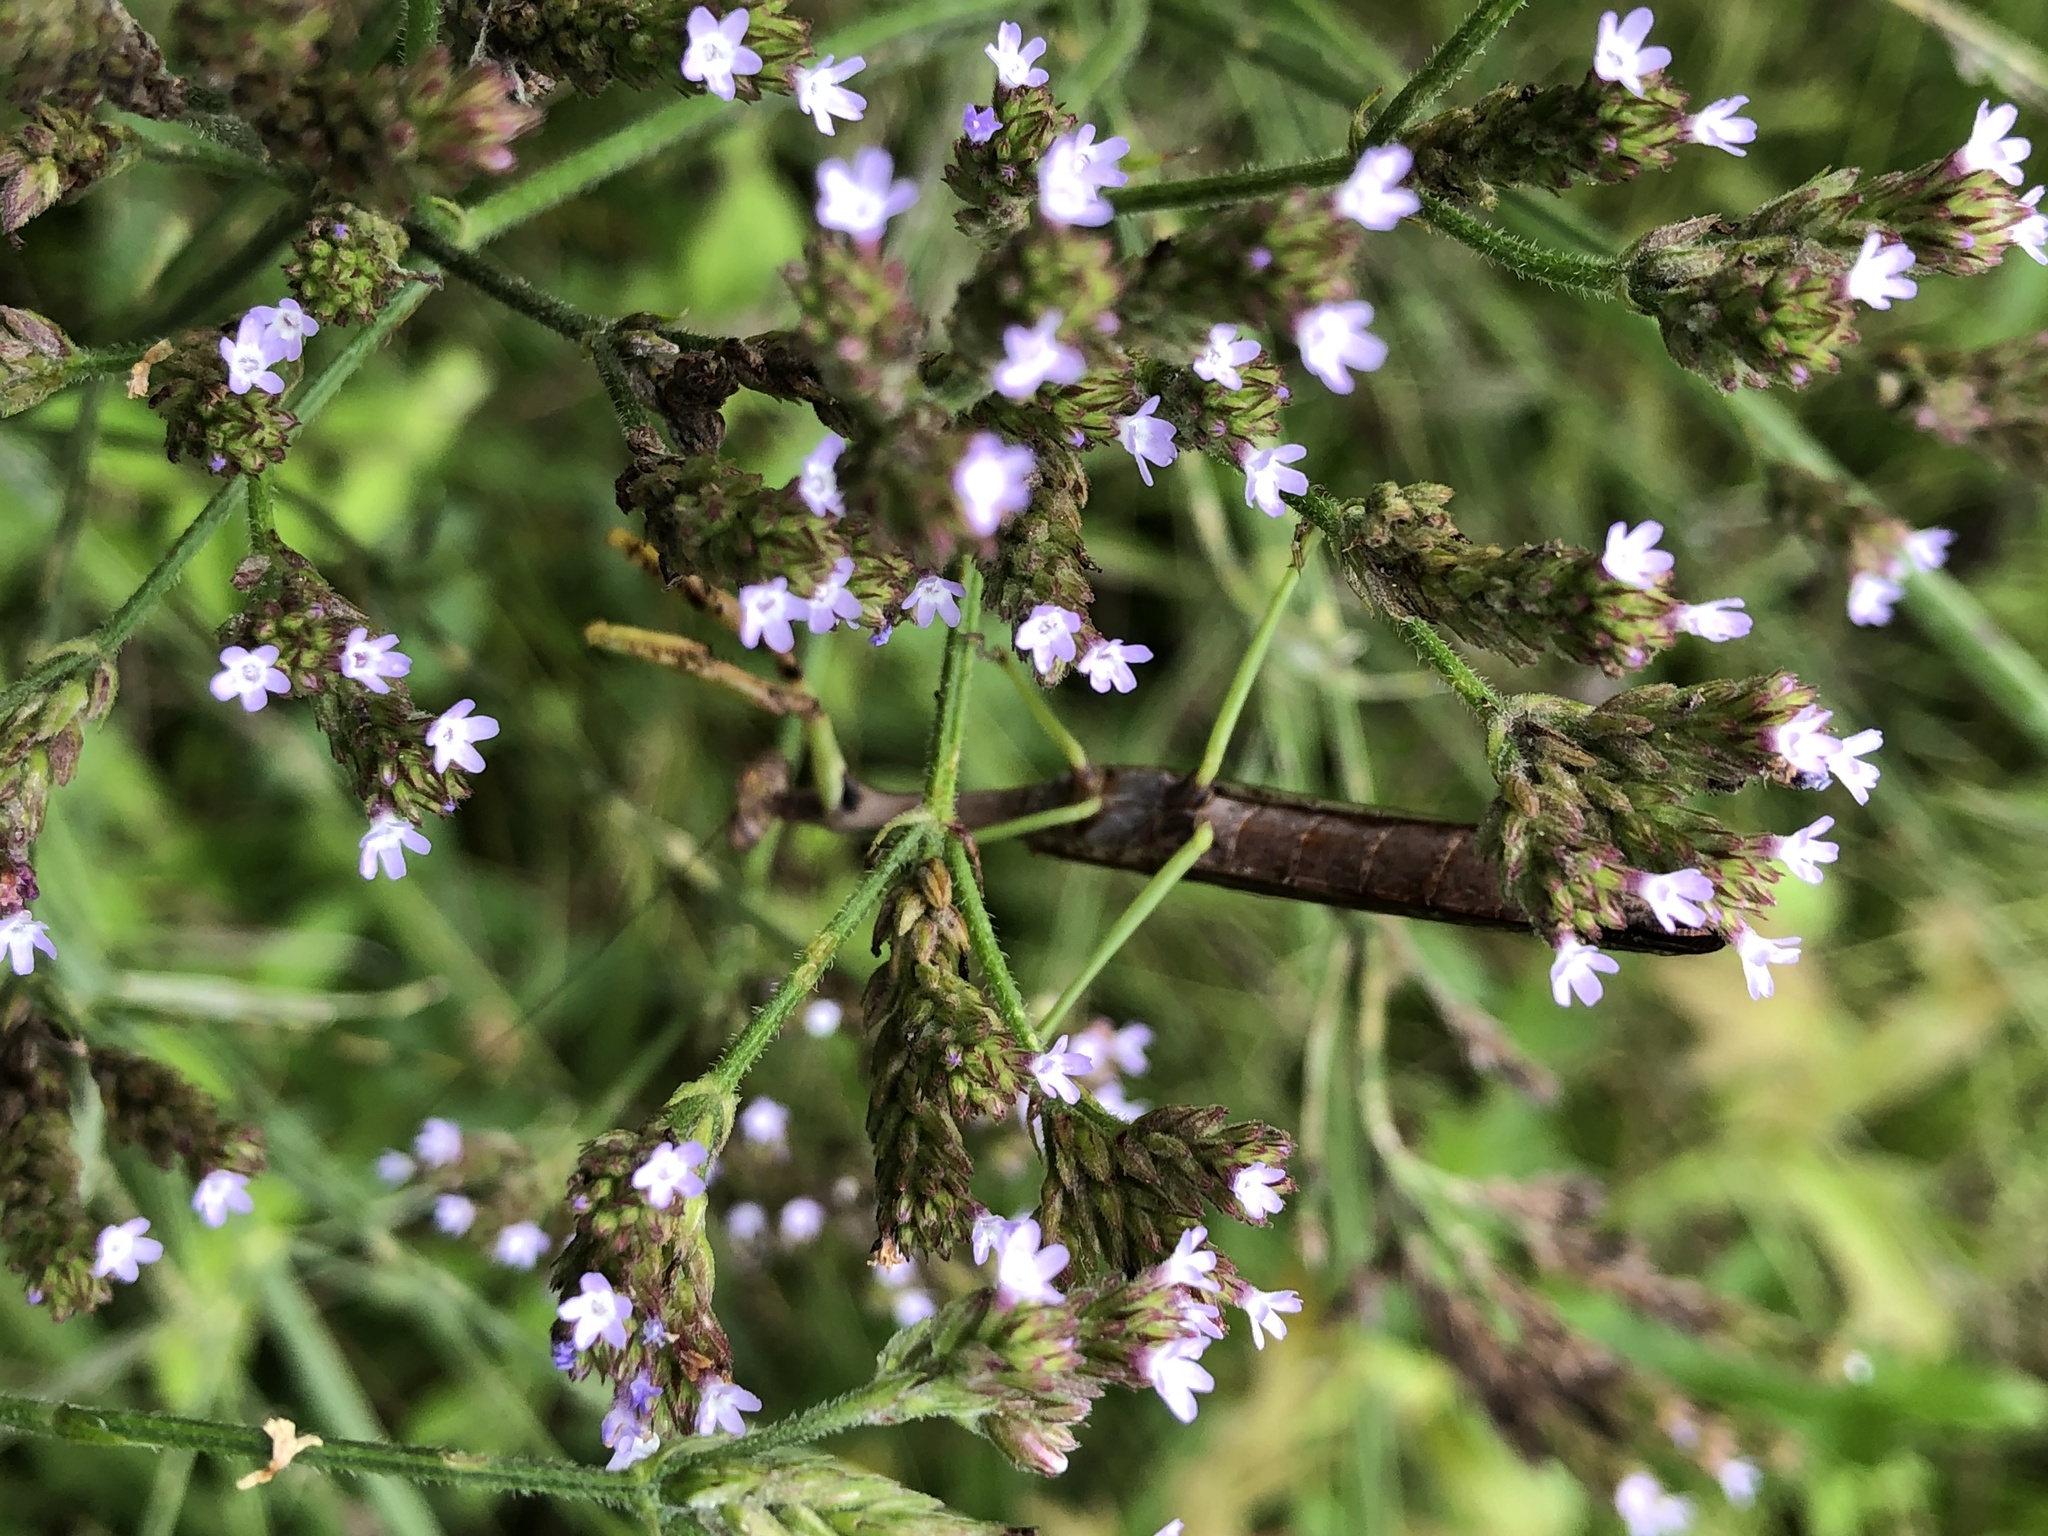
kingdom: Animalia
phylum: Arthropoda
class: Insecta
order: Mantodea
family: Mantidae
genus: Stagmomantis
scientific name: Stagmomantis carolina
